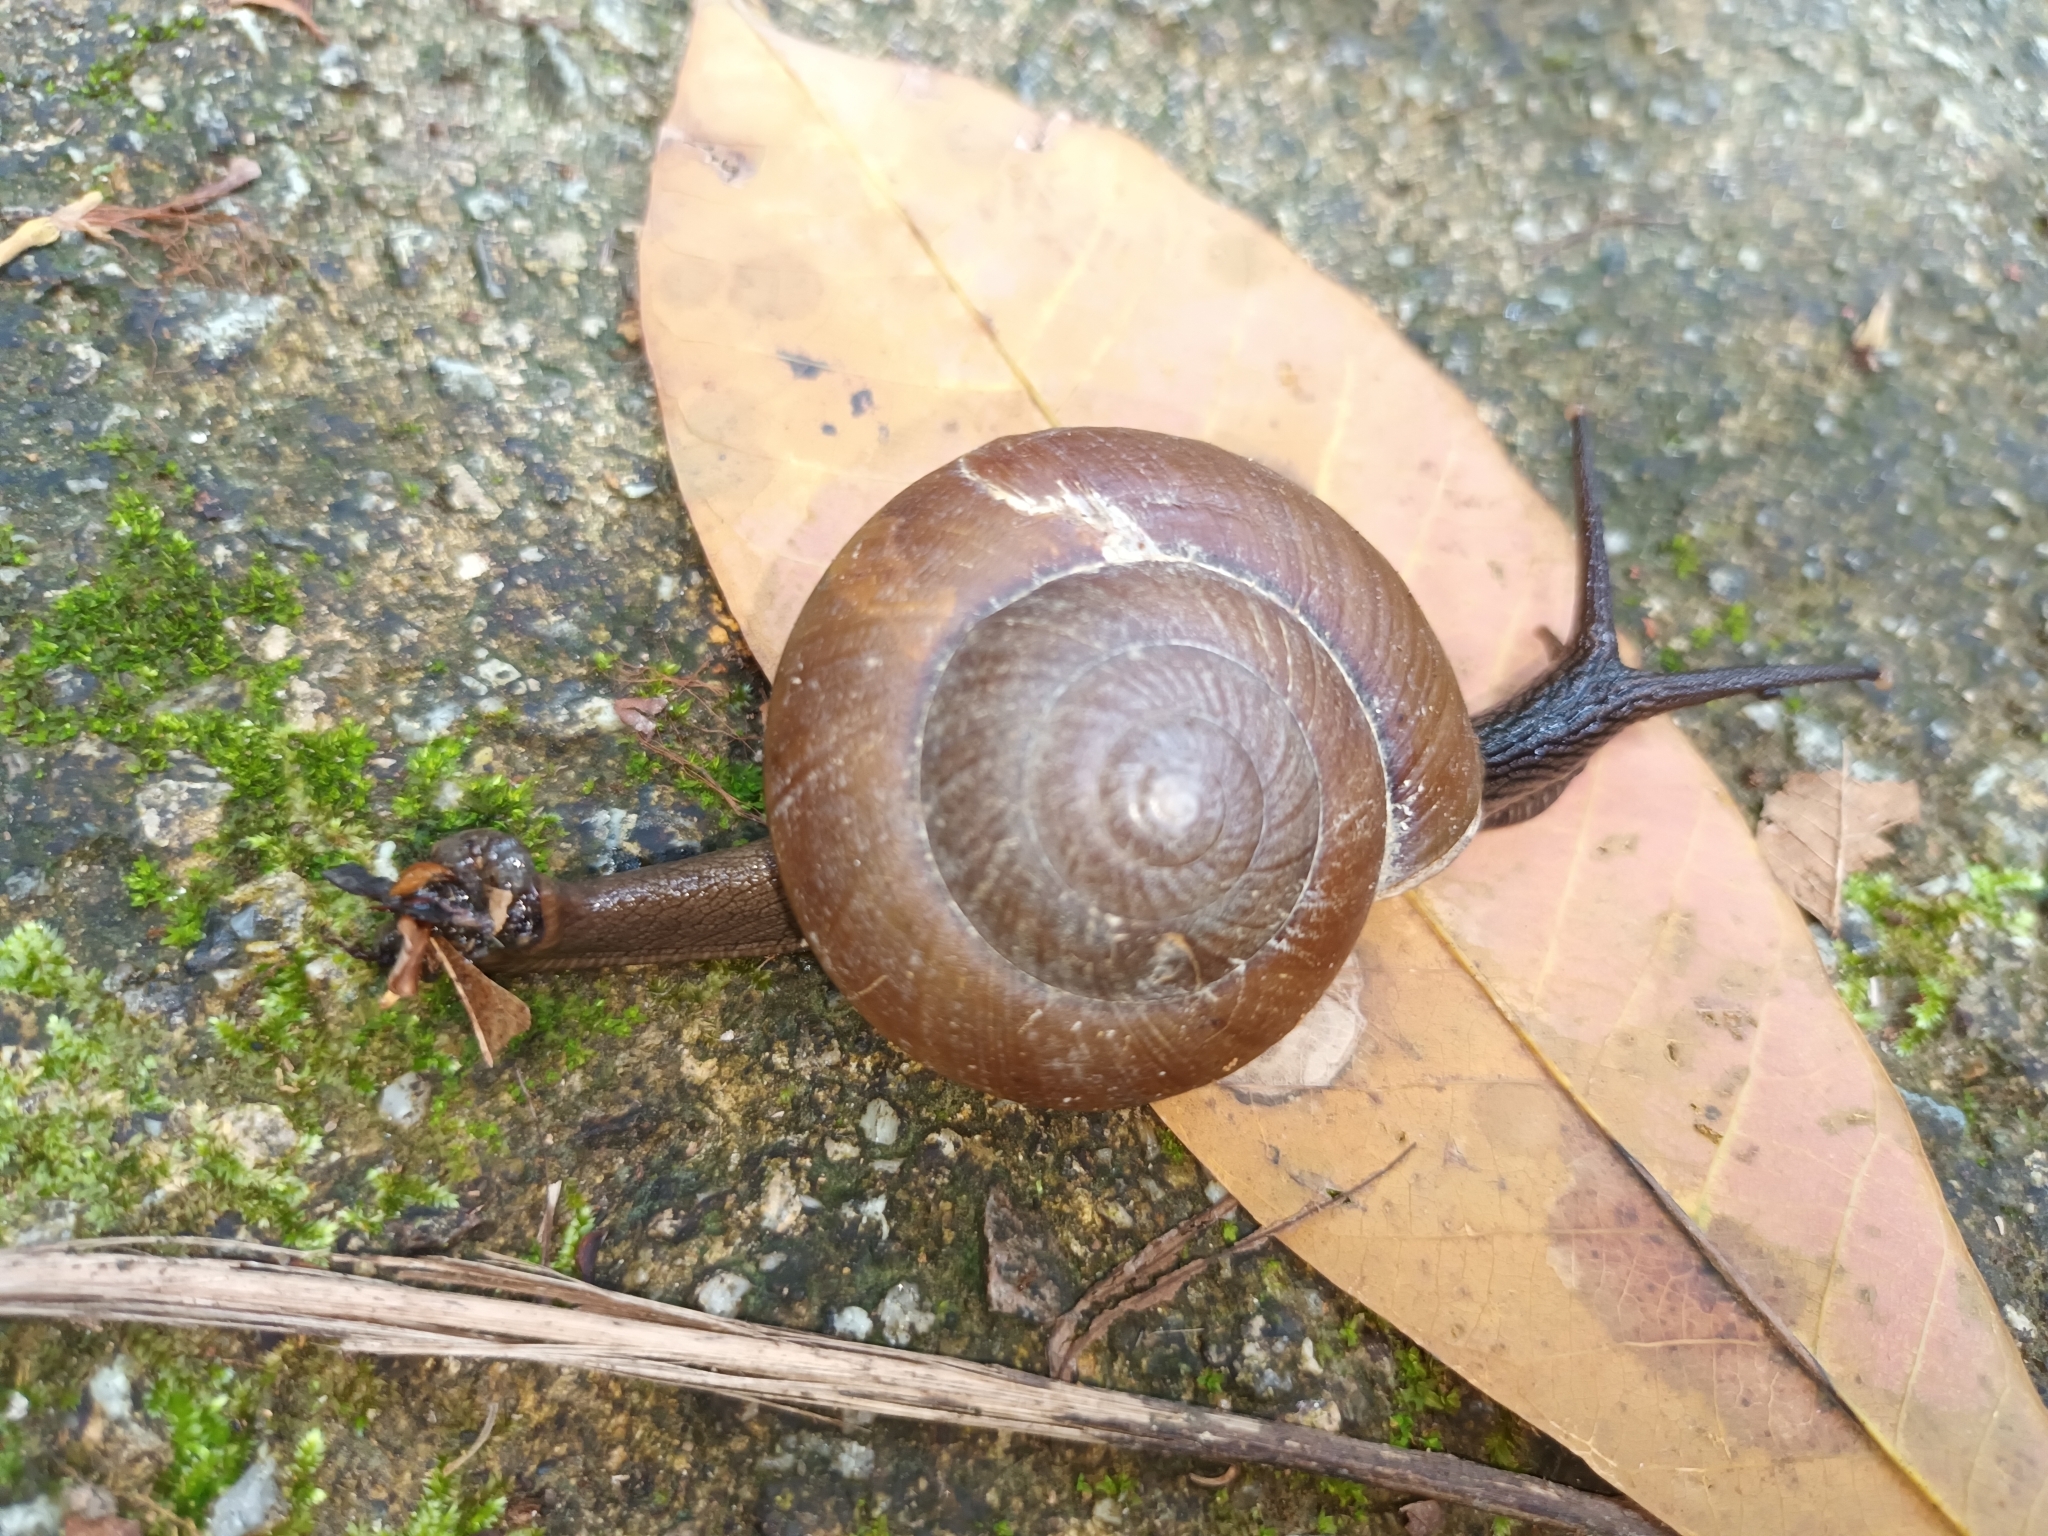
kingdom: Animalia
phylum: Mollusca
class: Gastropoda
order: Stylommatophora
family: Ariophantidae
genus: Hemiplecta
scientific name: Hemiplecta humphreysiana
